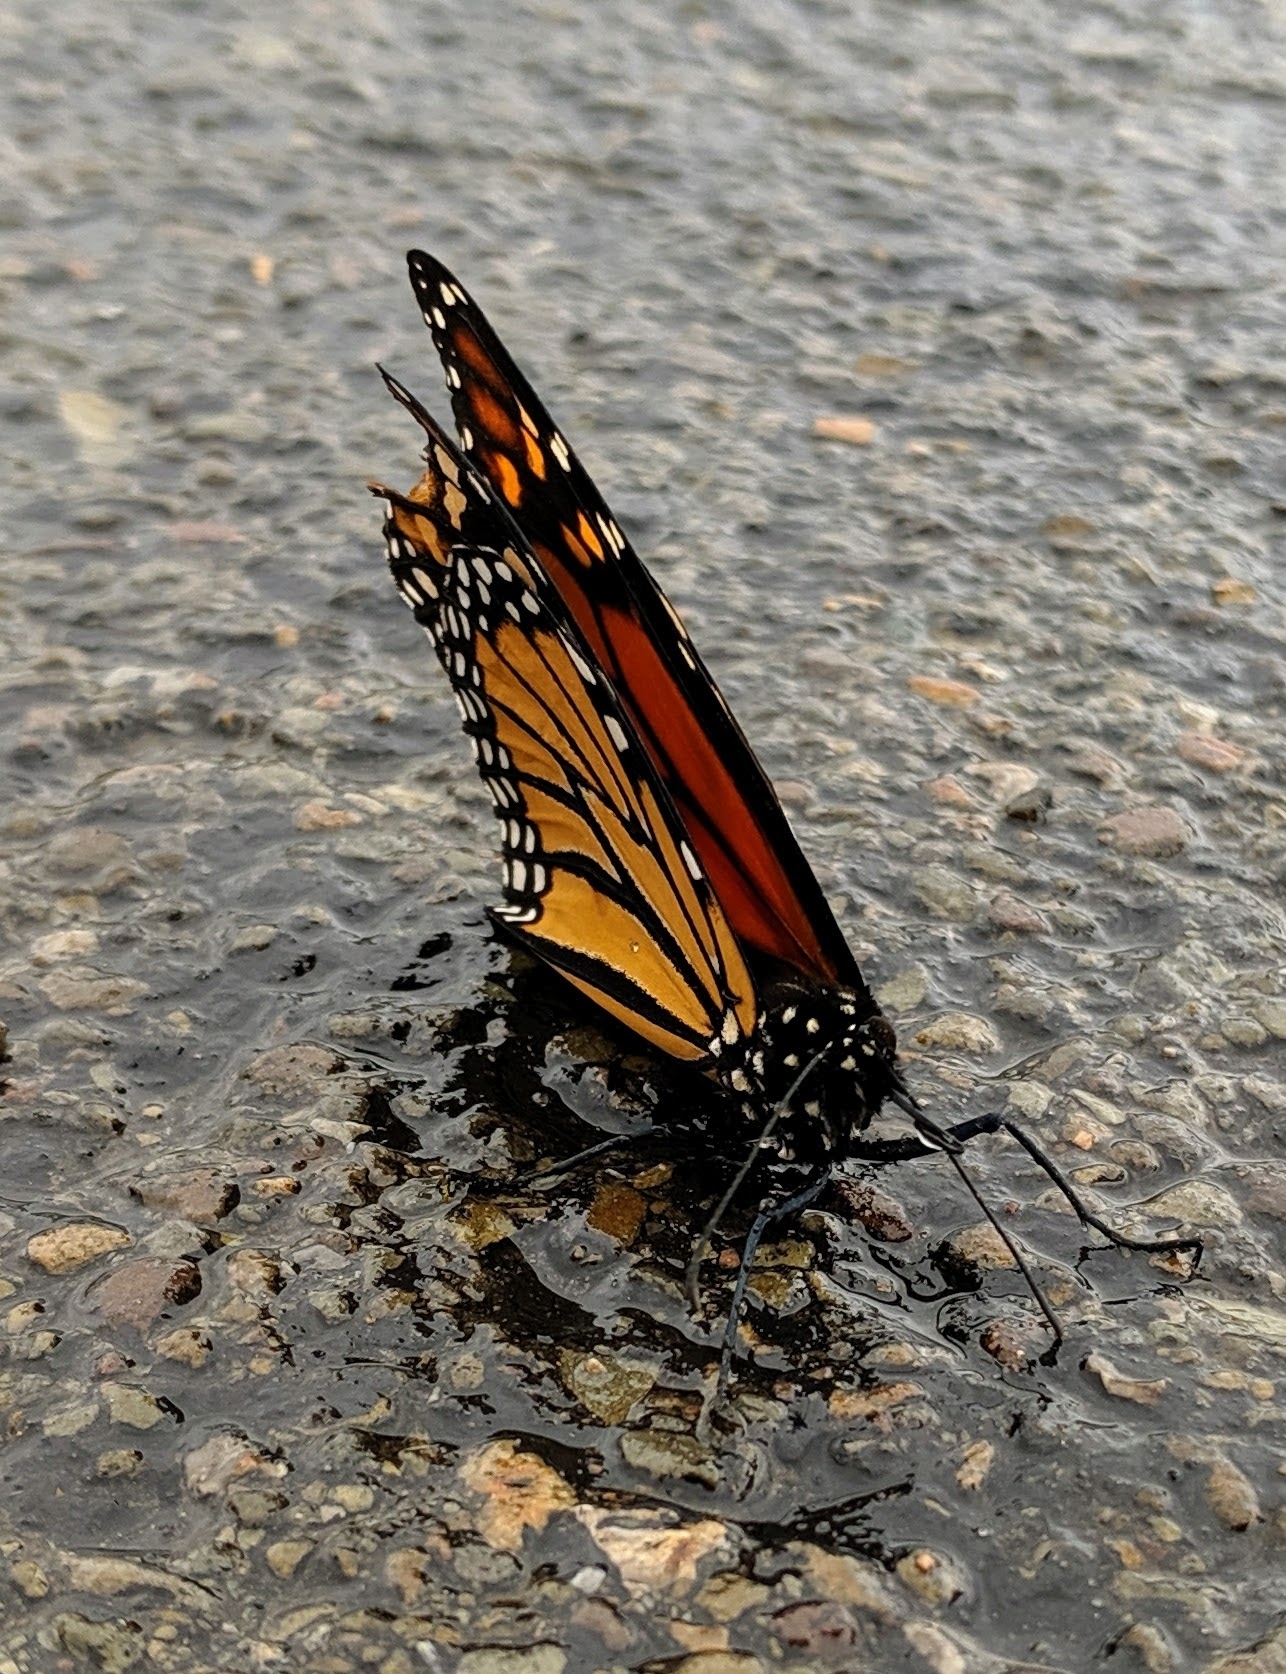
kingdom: Animalia
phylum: Arthropoda
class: Insecta
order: Lepidoptera
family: Nymphalidae
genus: Danaus
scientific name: Danaus plexippus
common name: Monarch
